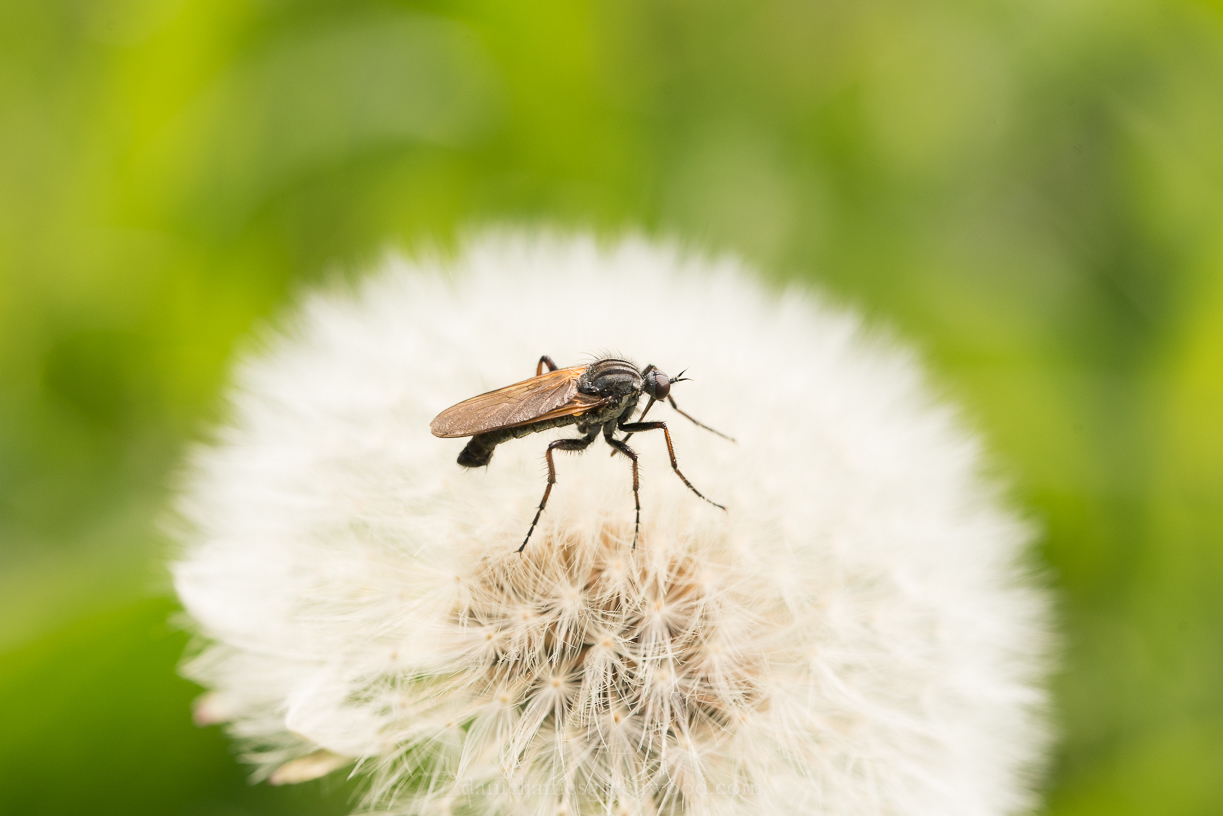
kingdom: Animalia
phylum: Arthropoda
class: Insecta
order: Diptera
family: Empididae
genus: Empis
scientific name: Empis tessellata
